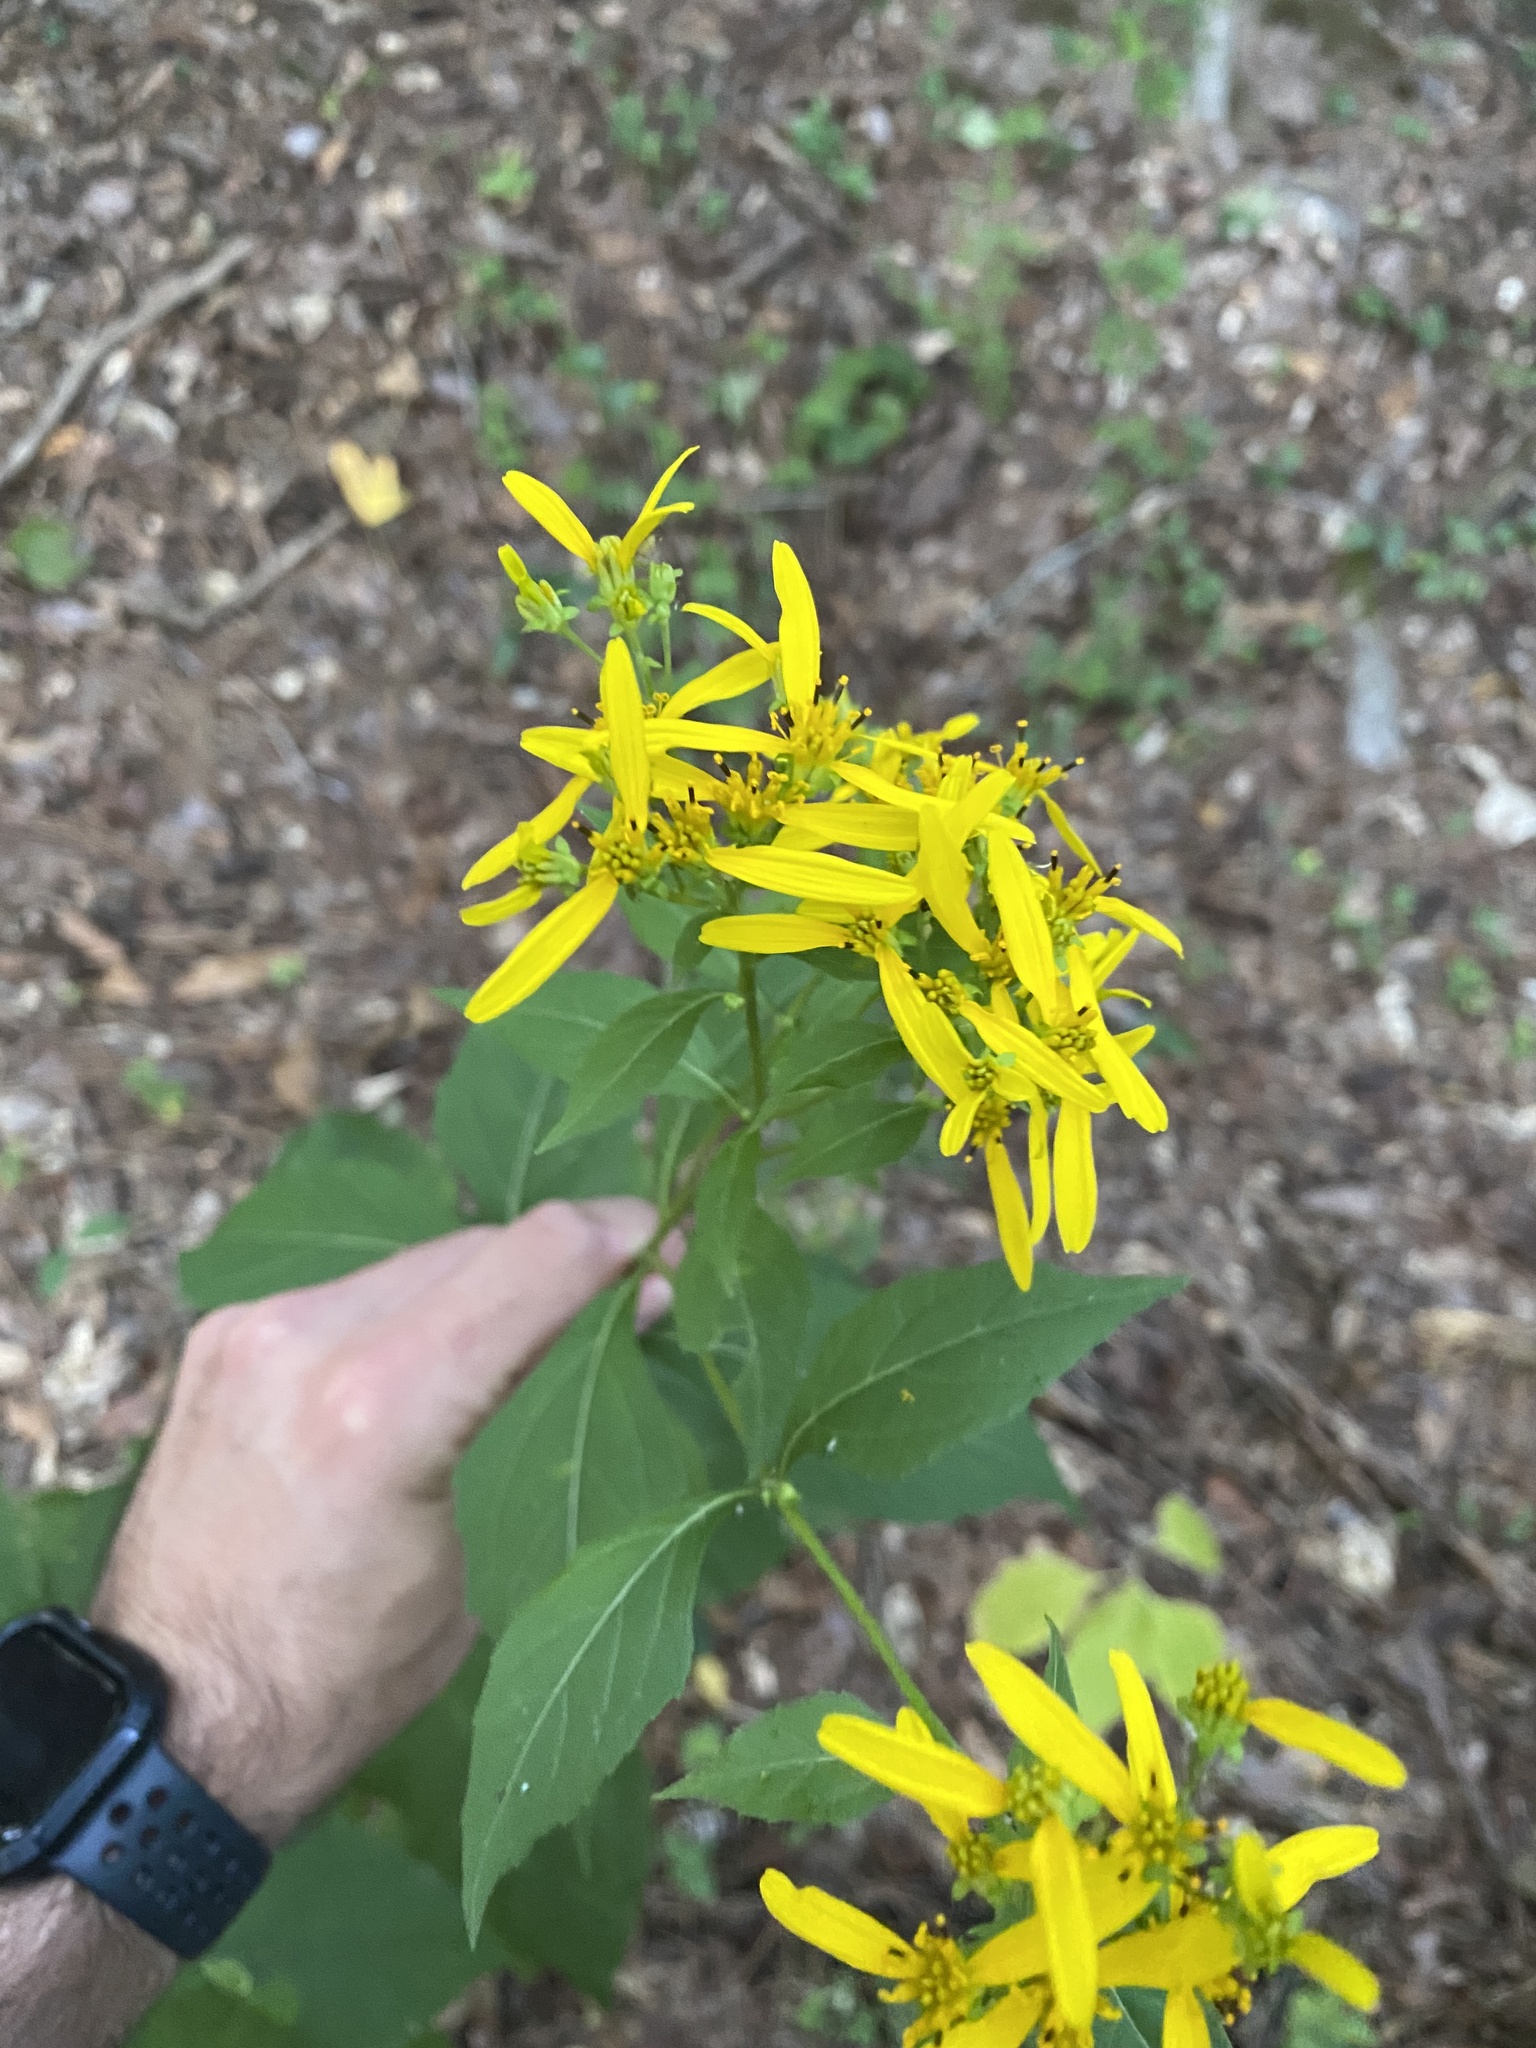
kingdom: Plantae
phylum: Tracheophyta
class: Magnoliopsida
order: Asterales
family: Asteraceae
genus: Verbesina
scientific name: Verbesina occidentalis
